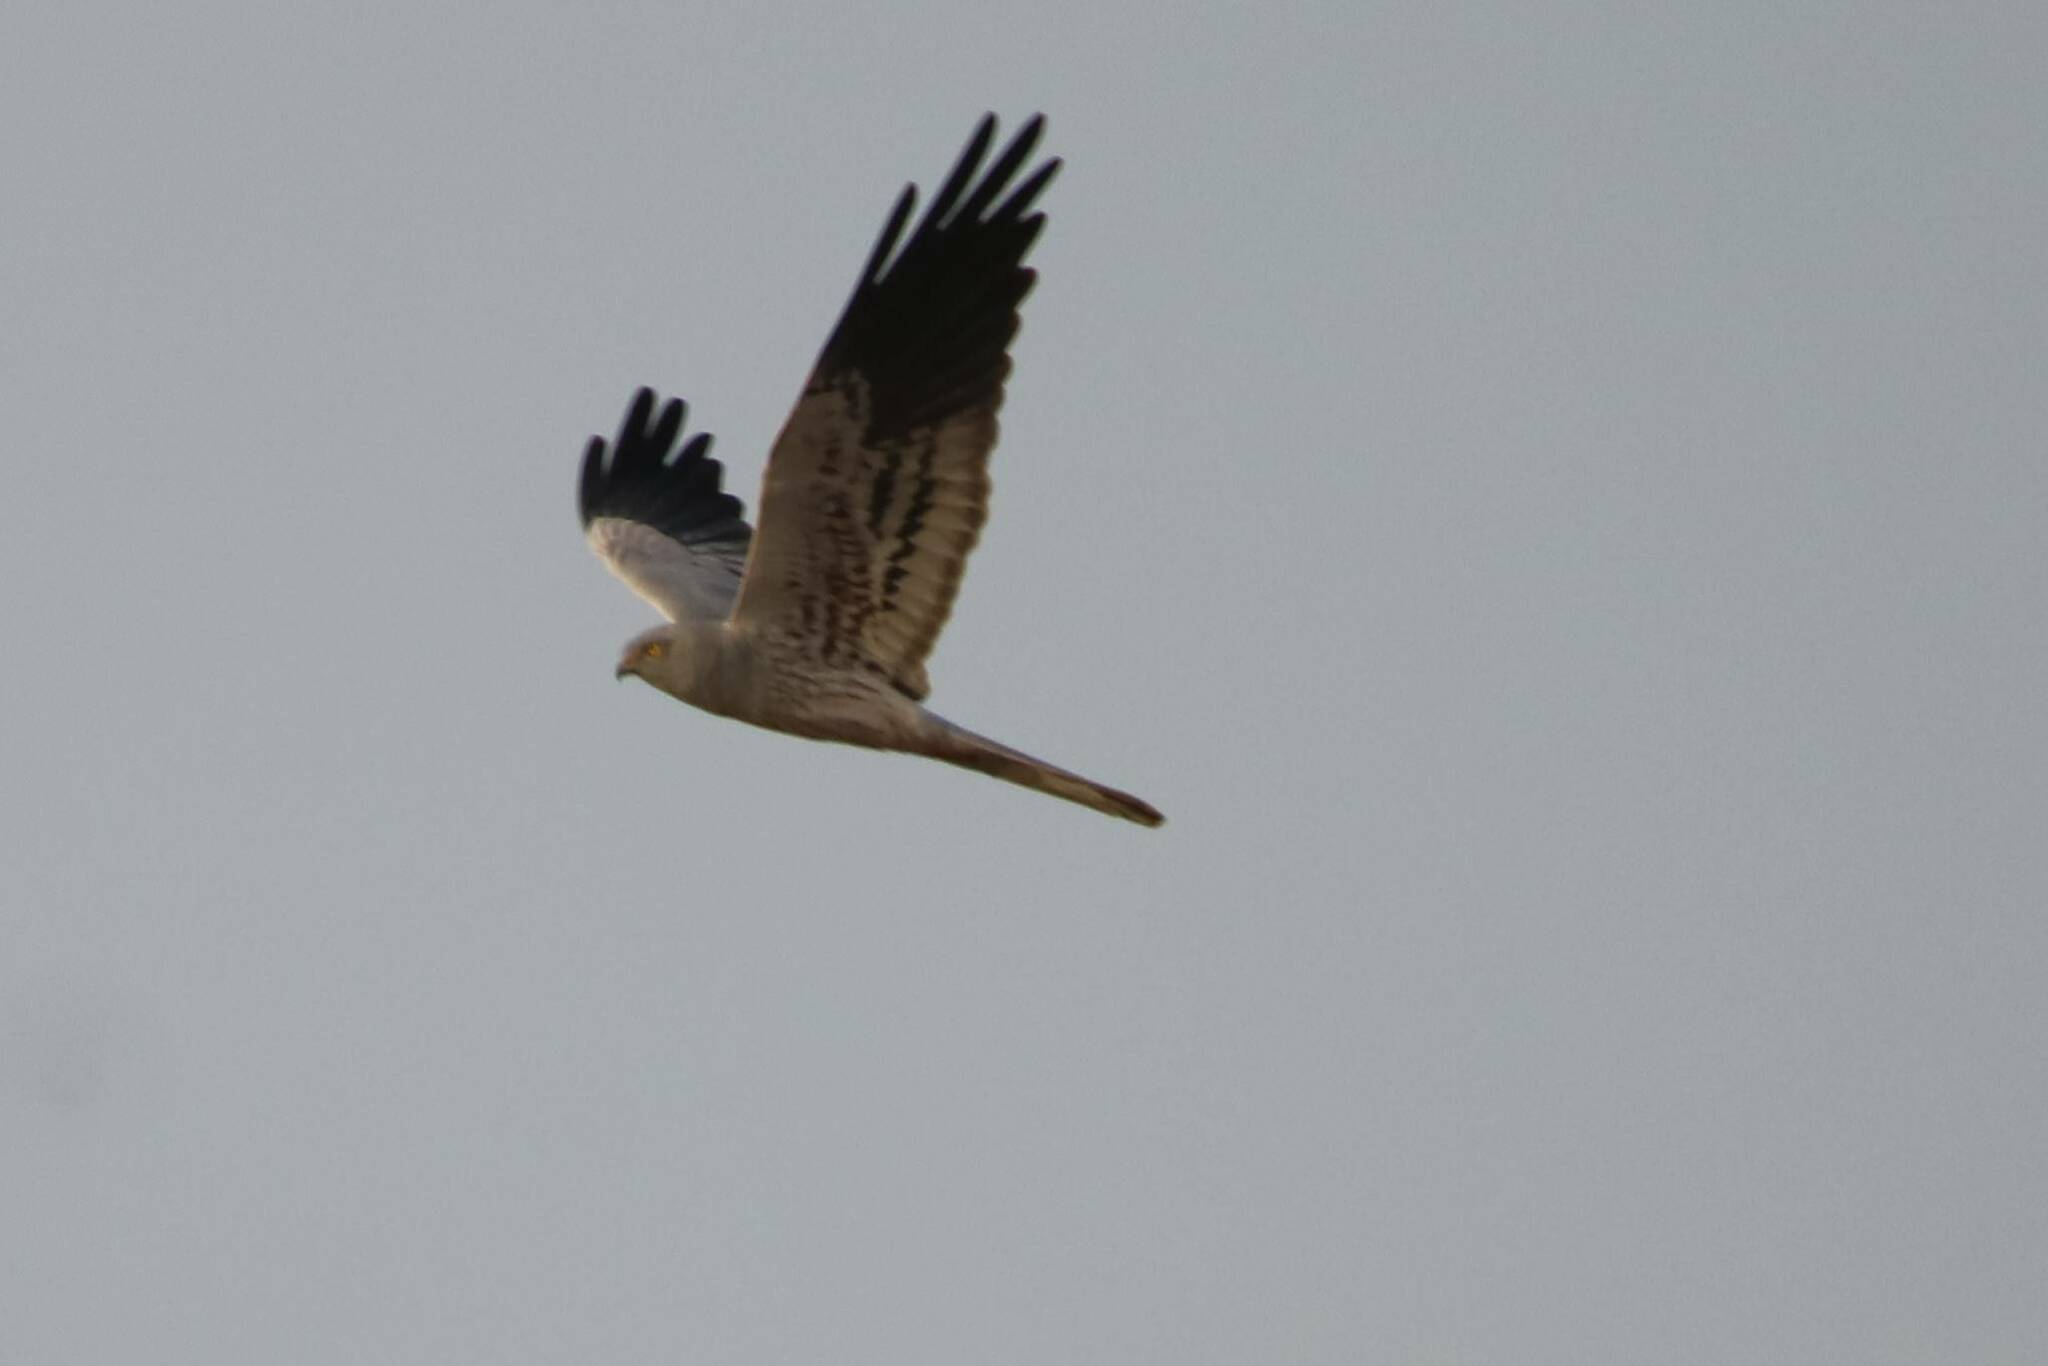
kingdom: Animalia
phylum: Chordata
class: Aves
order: Accipitriformes
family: Accipitridae
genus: Circus
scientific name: Circus pygargus
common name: Montagu's harrier
